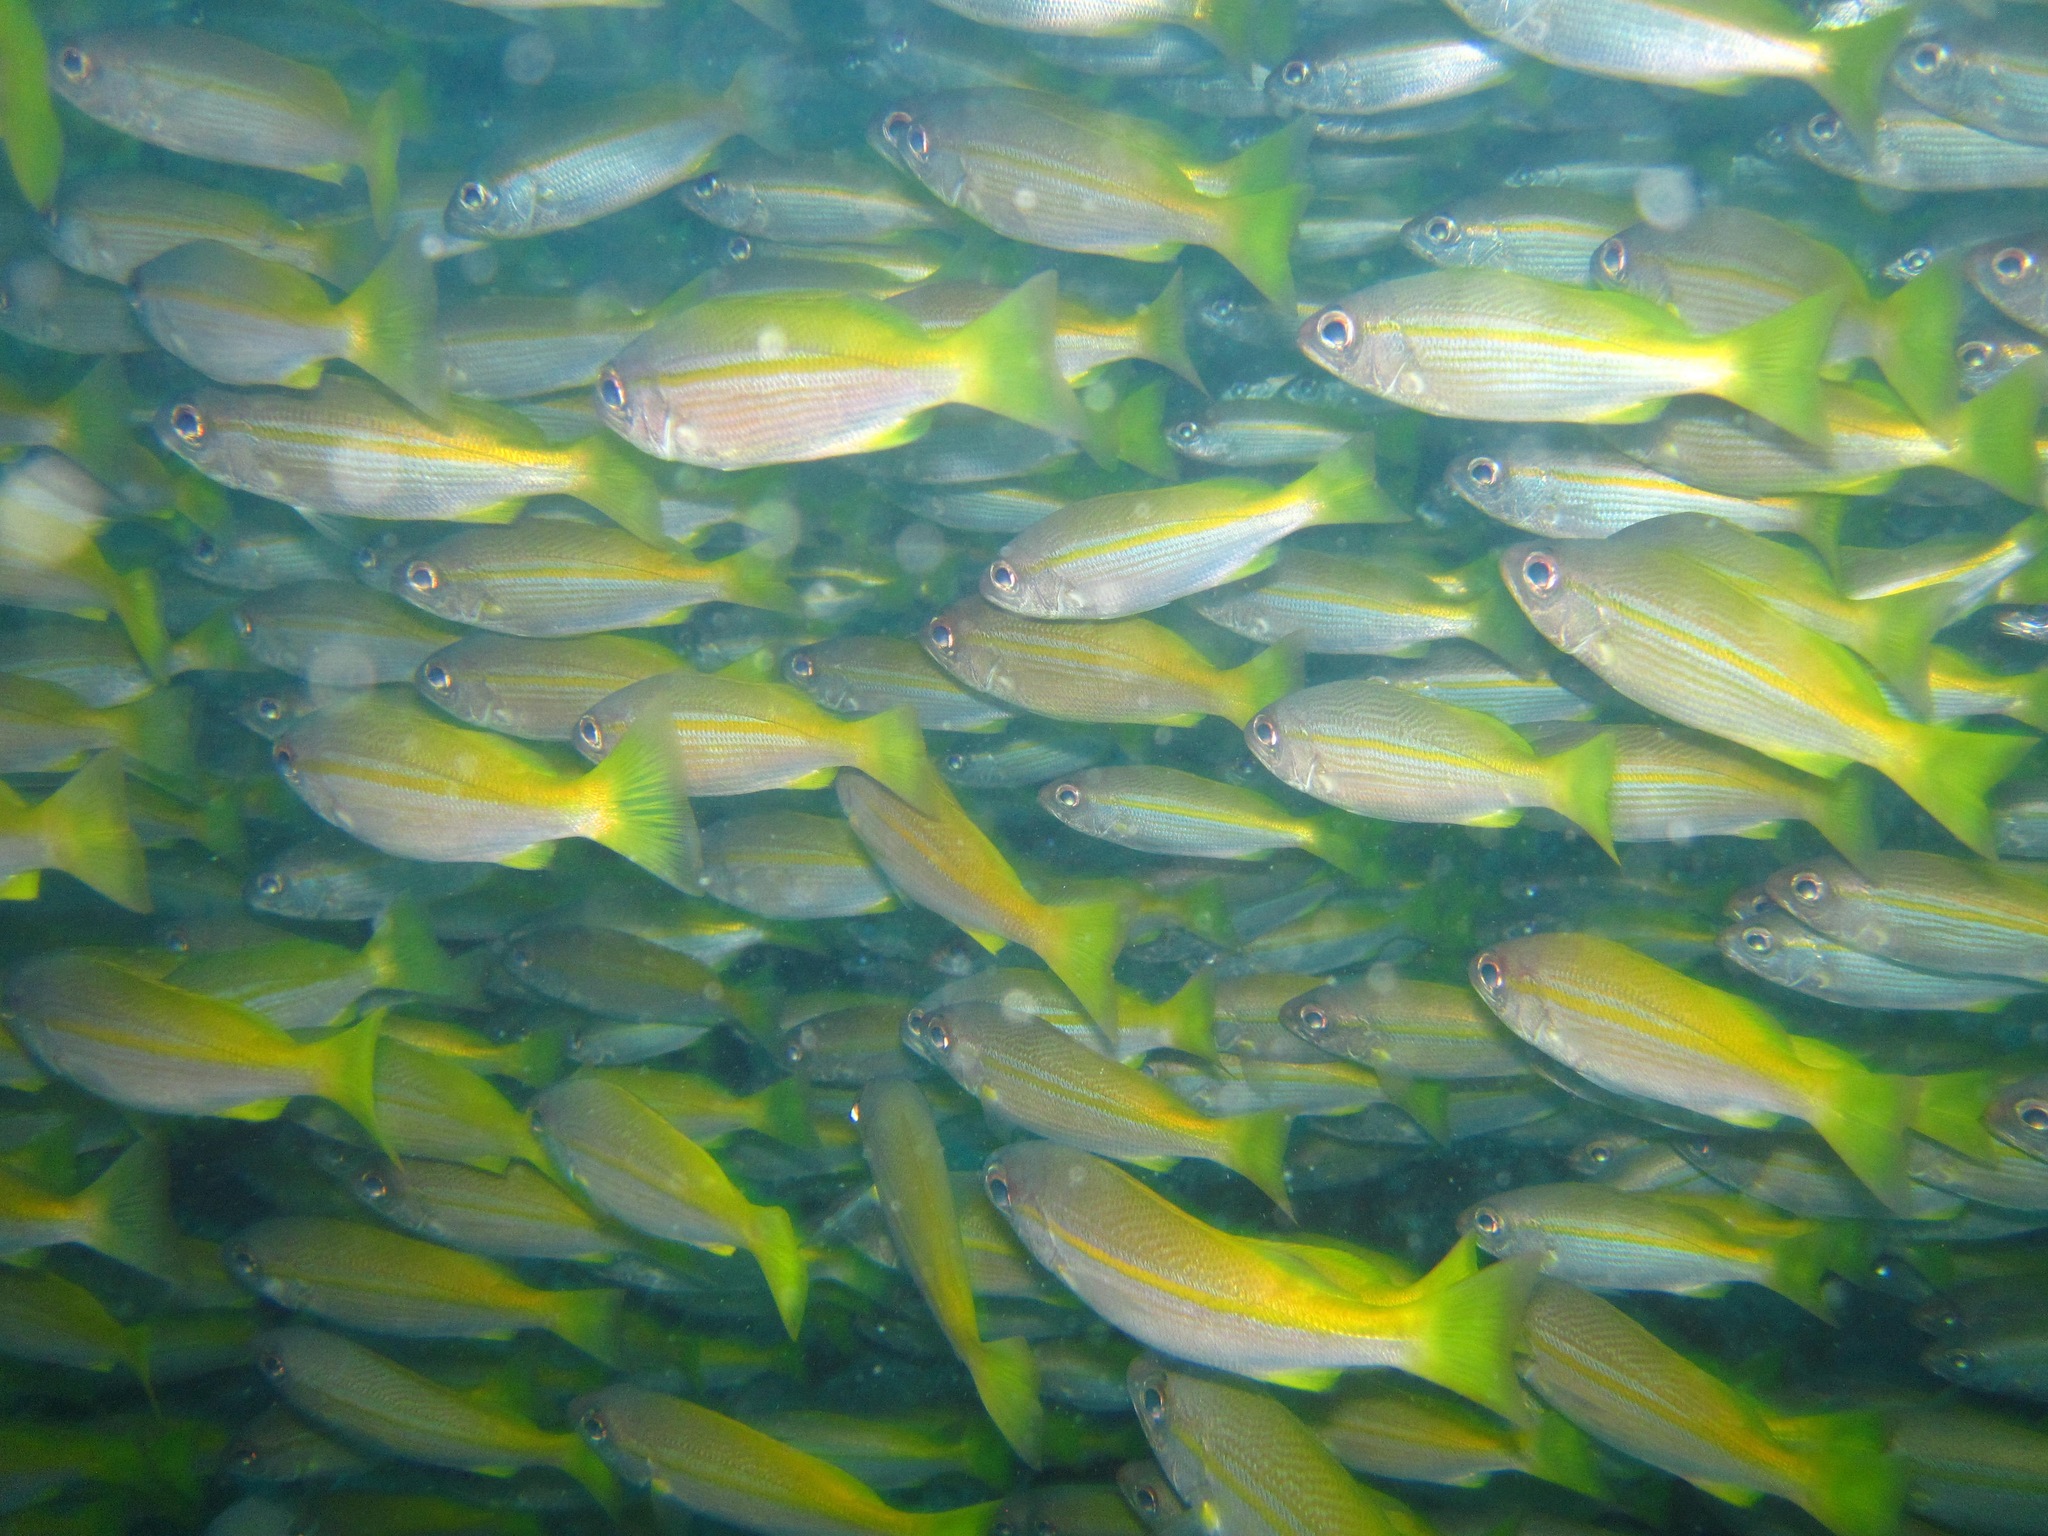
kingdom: Animalia
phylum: Chordata
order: Perciformes
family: Lutjanidae
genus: Lutjanus
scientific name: Lutjanus lutjanus
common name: Bigeye snapper
